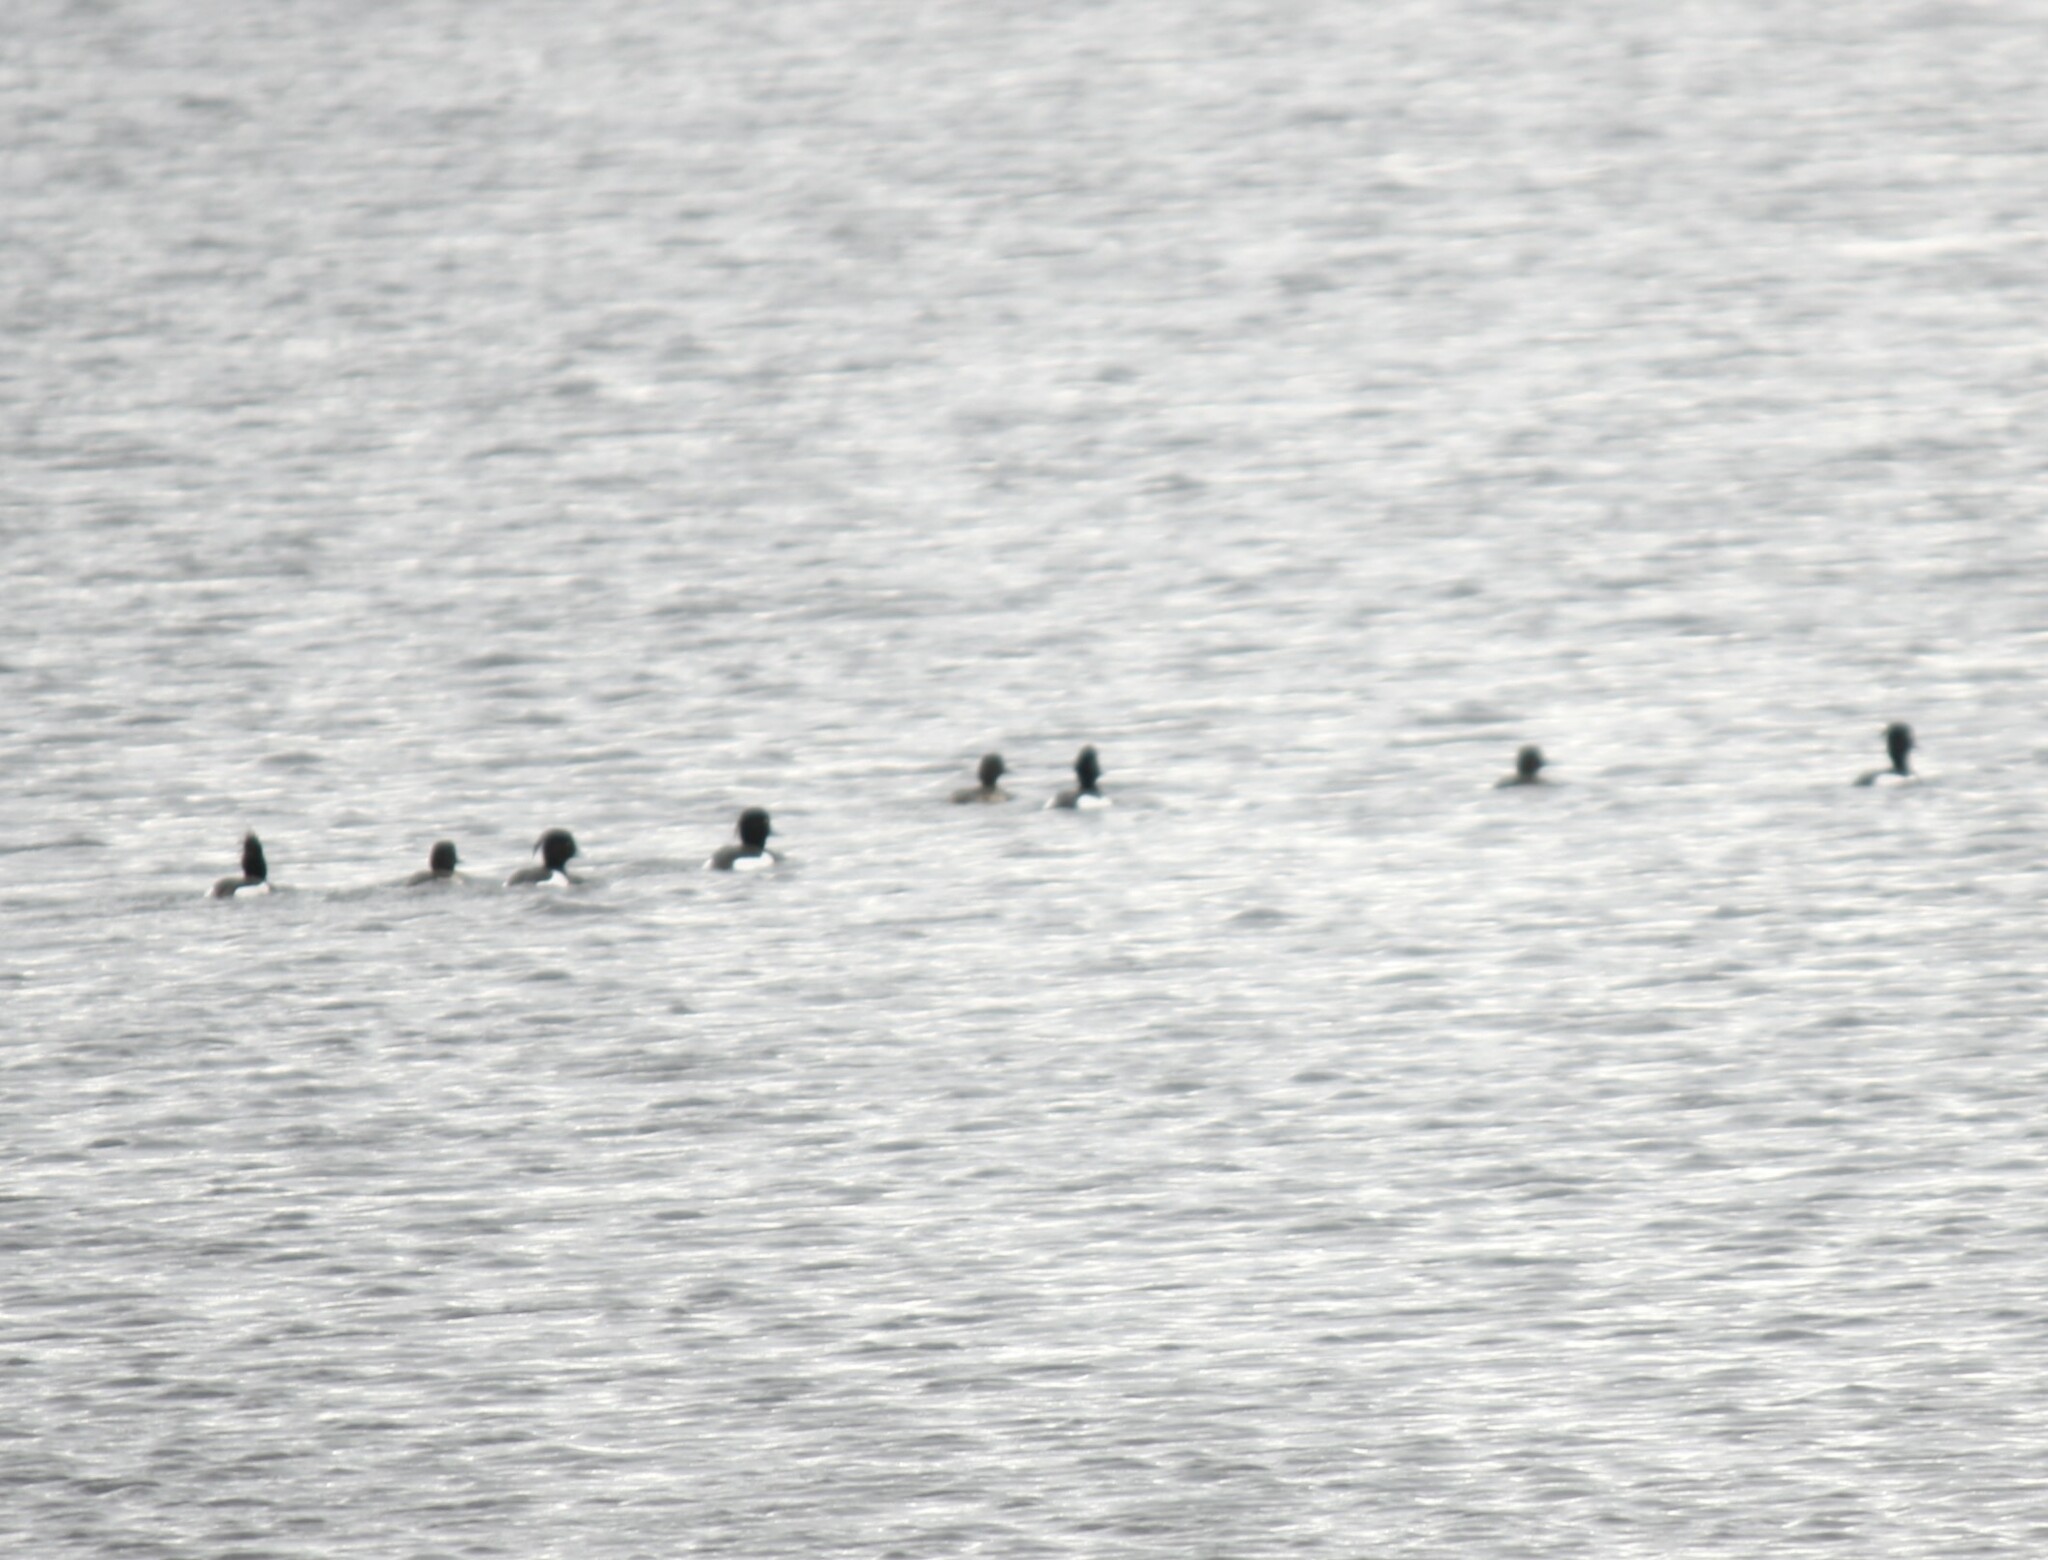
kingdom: Animalia
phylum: Chordata
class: Aves
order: Anseriformes
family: Anatidae
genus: Aythya
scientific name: Aythya fuligula
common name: Tufted duck
